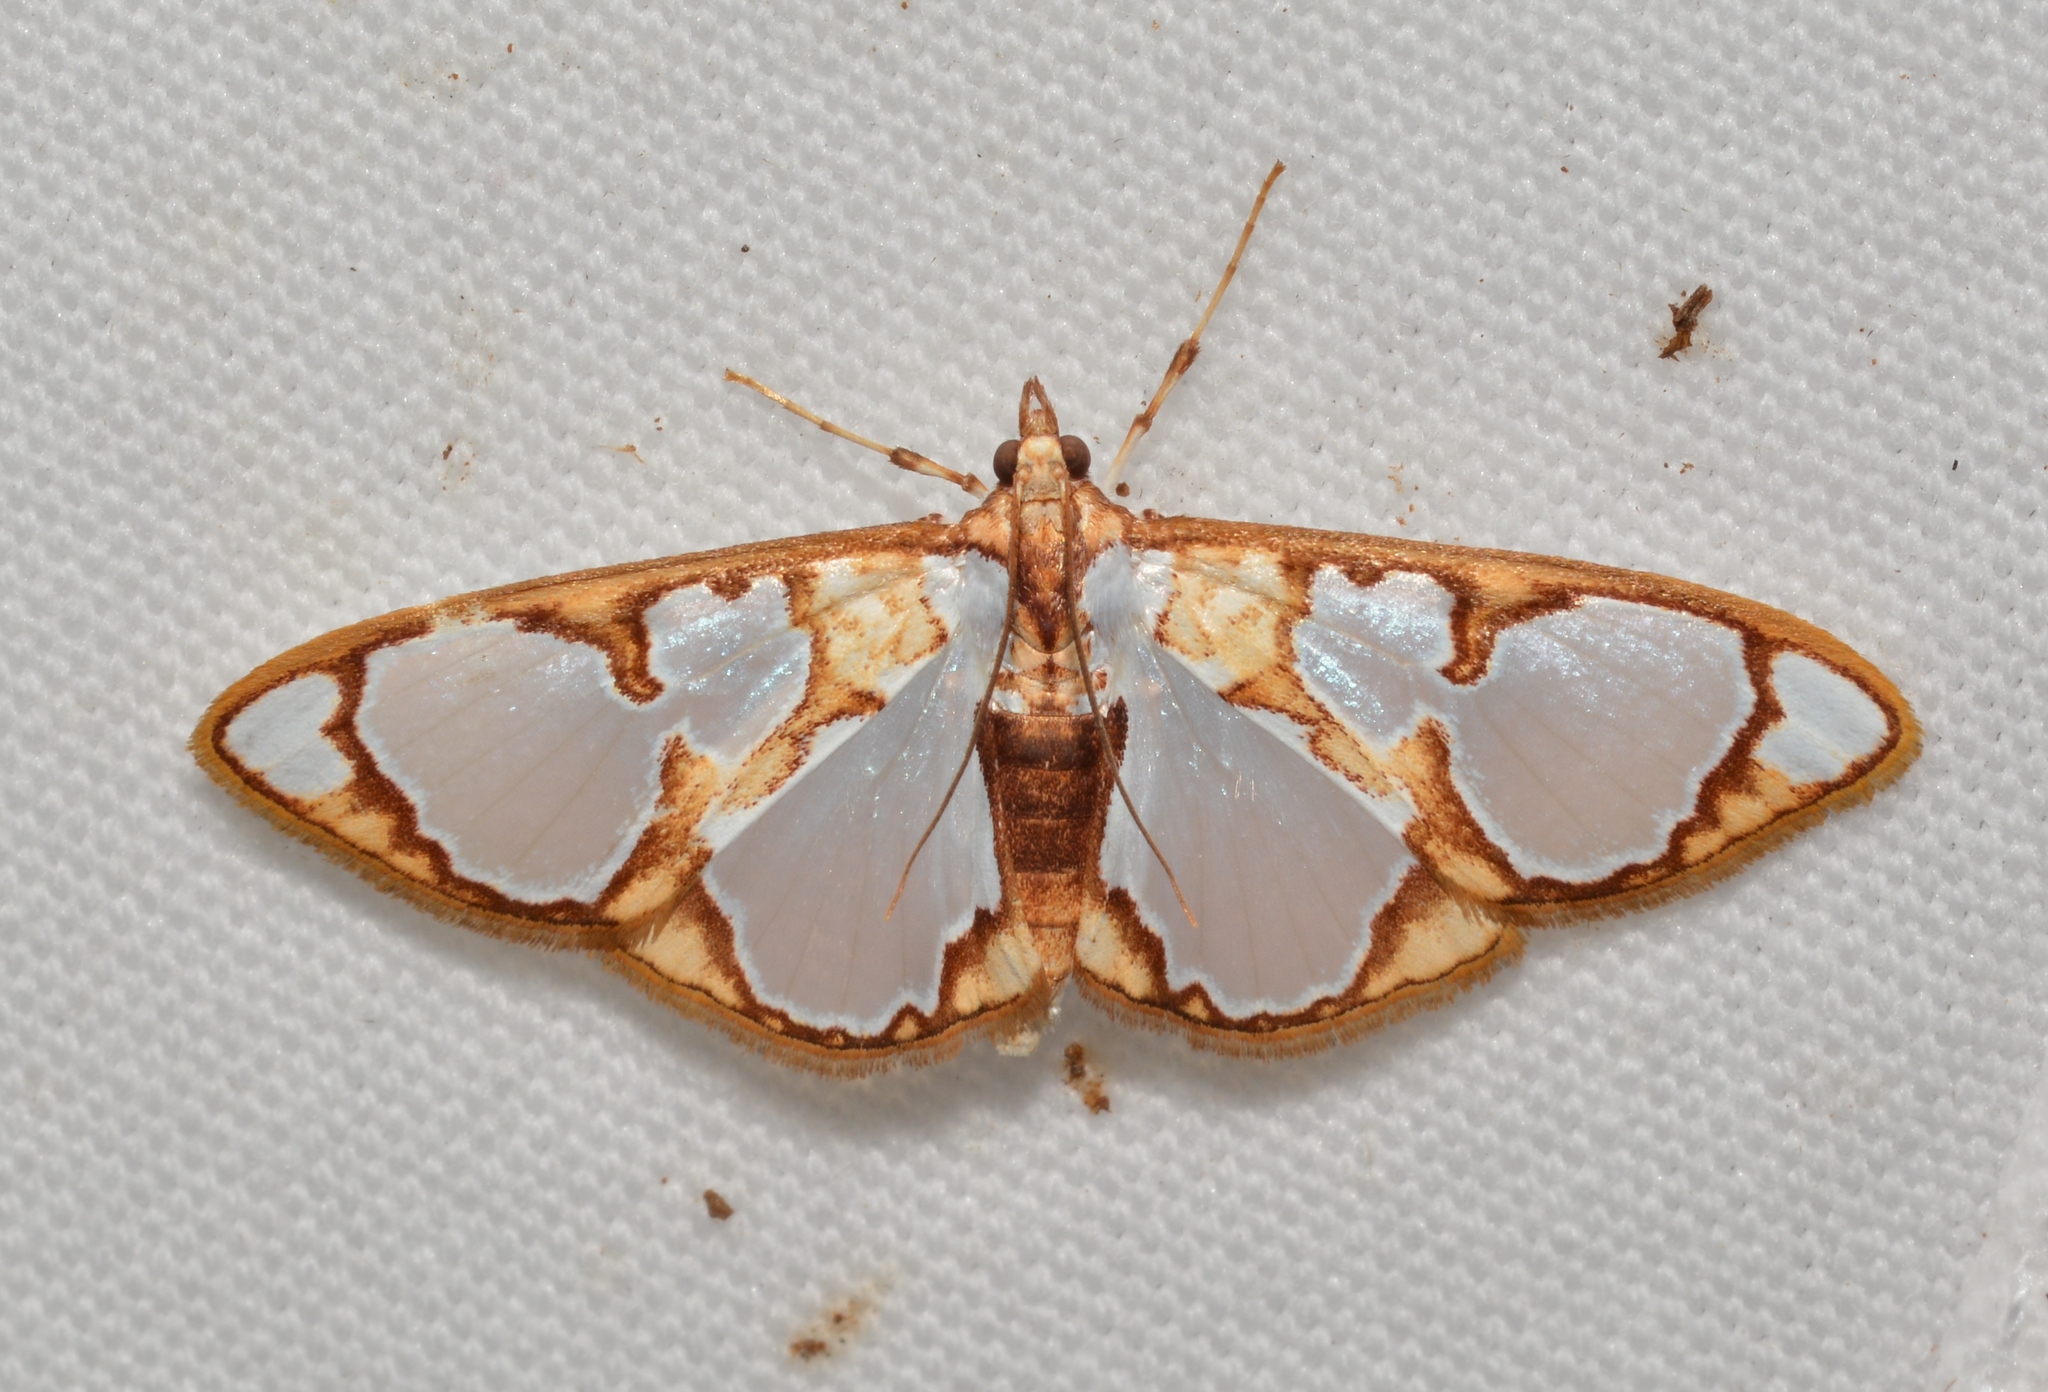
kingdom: Animalia
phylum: Arthropoda
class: Insecta
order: Lepidoptera
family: Crambidae
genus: Glyphodes
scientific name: Glyphodes grandisalis
